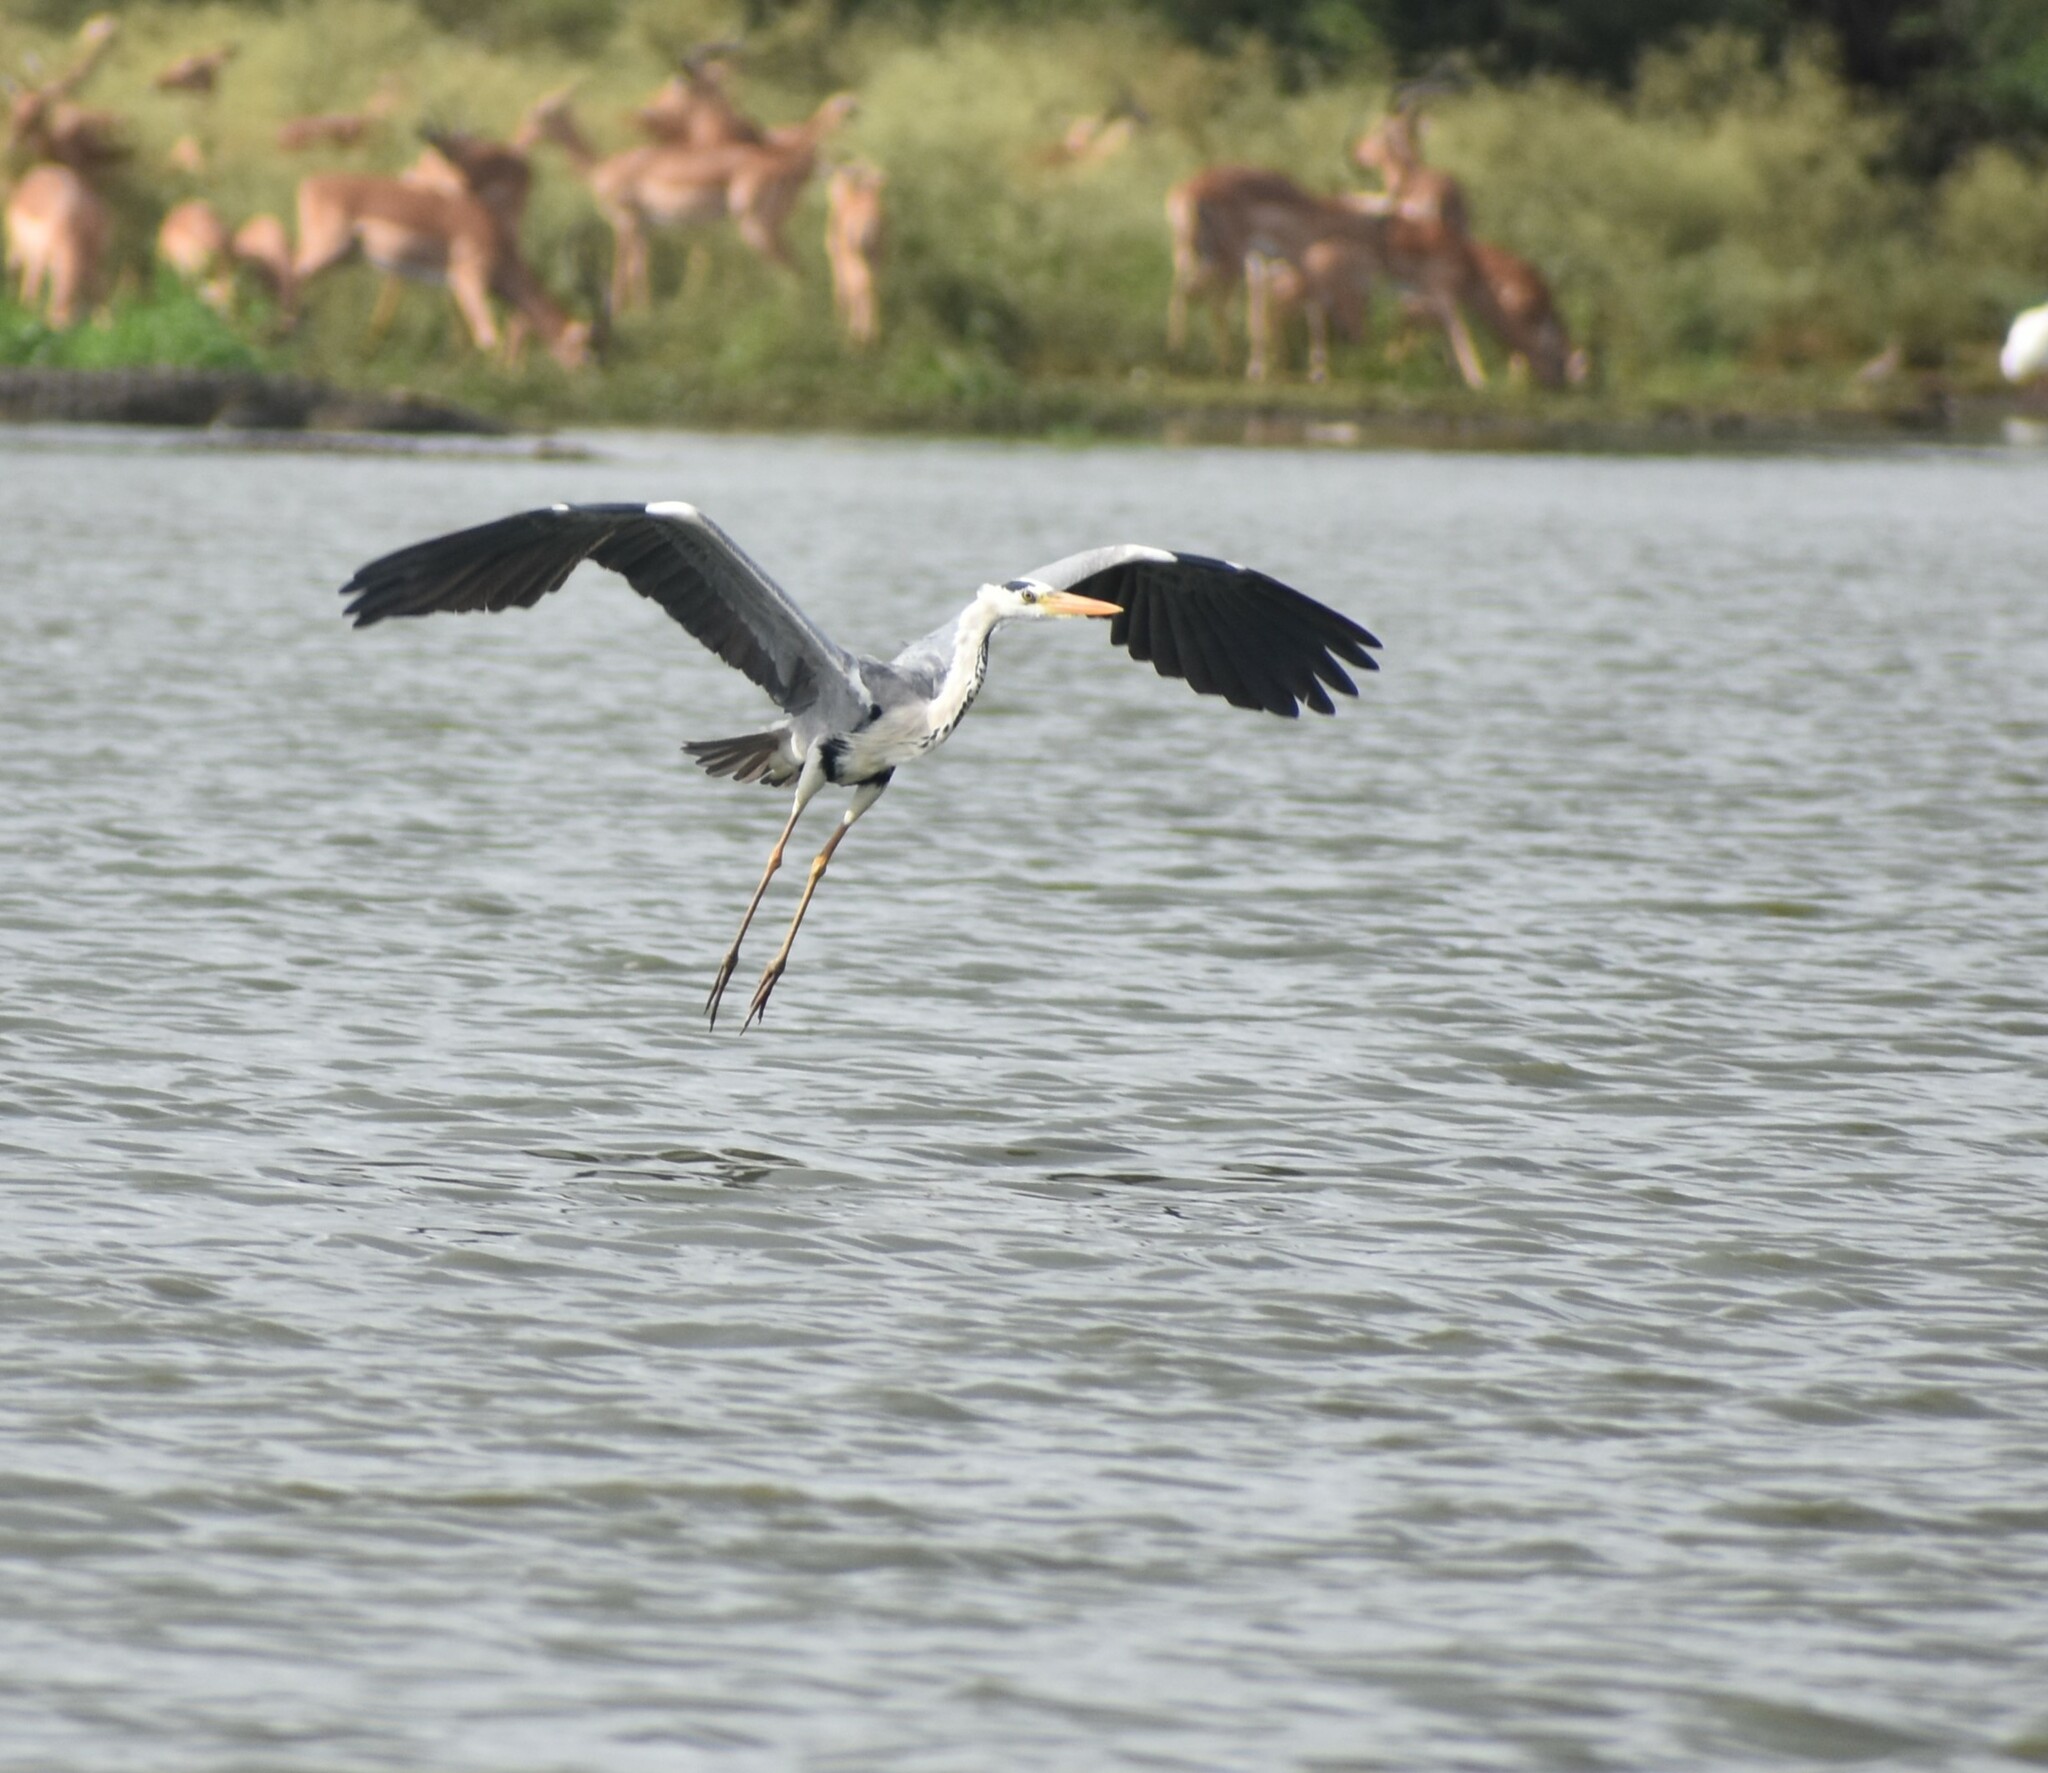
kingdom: Animalia
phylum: Chordata
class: Aves
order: Pelecaniformes
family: Ardeidae
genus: Ardea
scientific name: Ardea cinerea
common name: Grey heron
